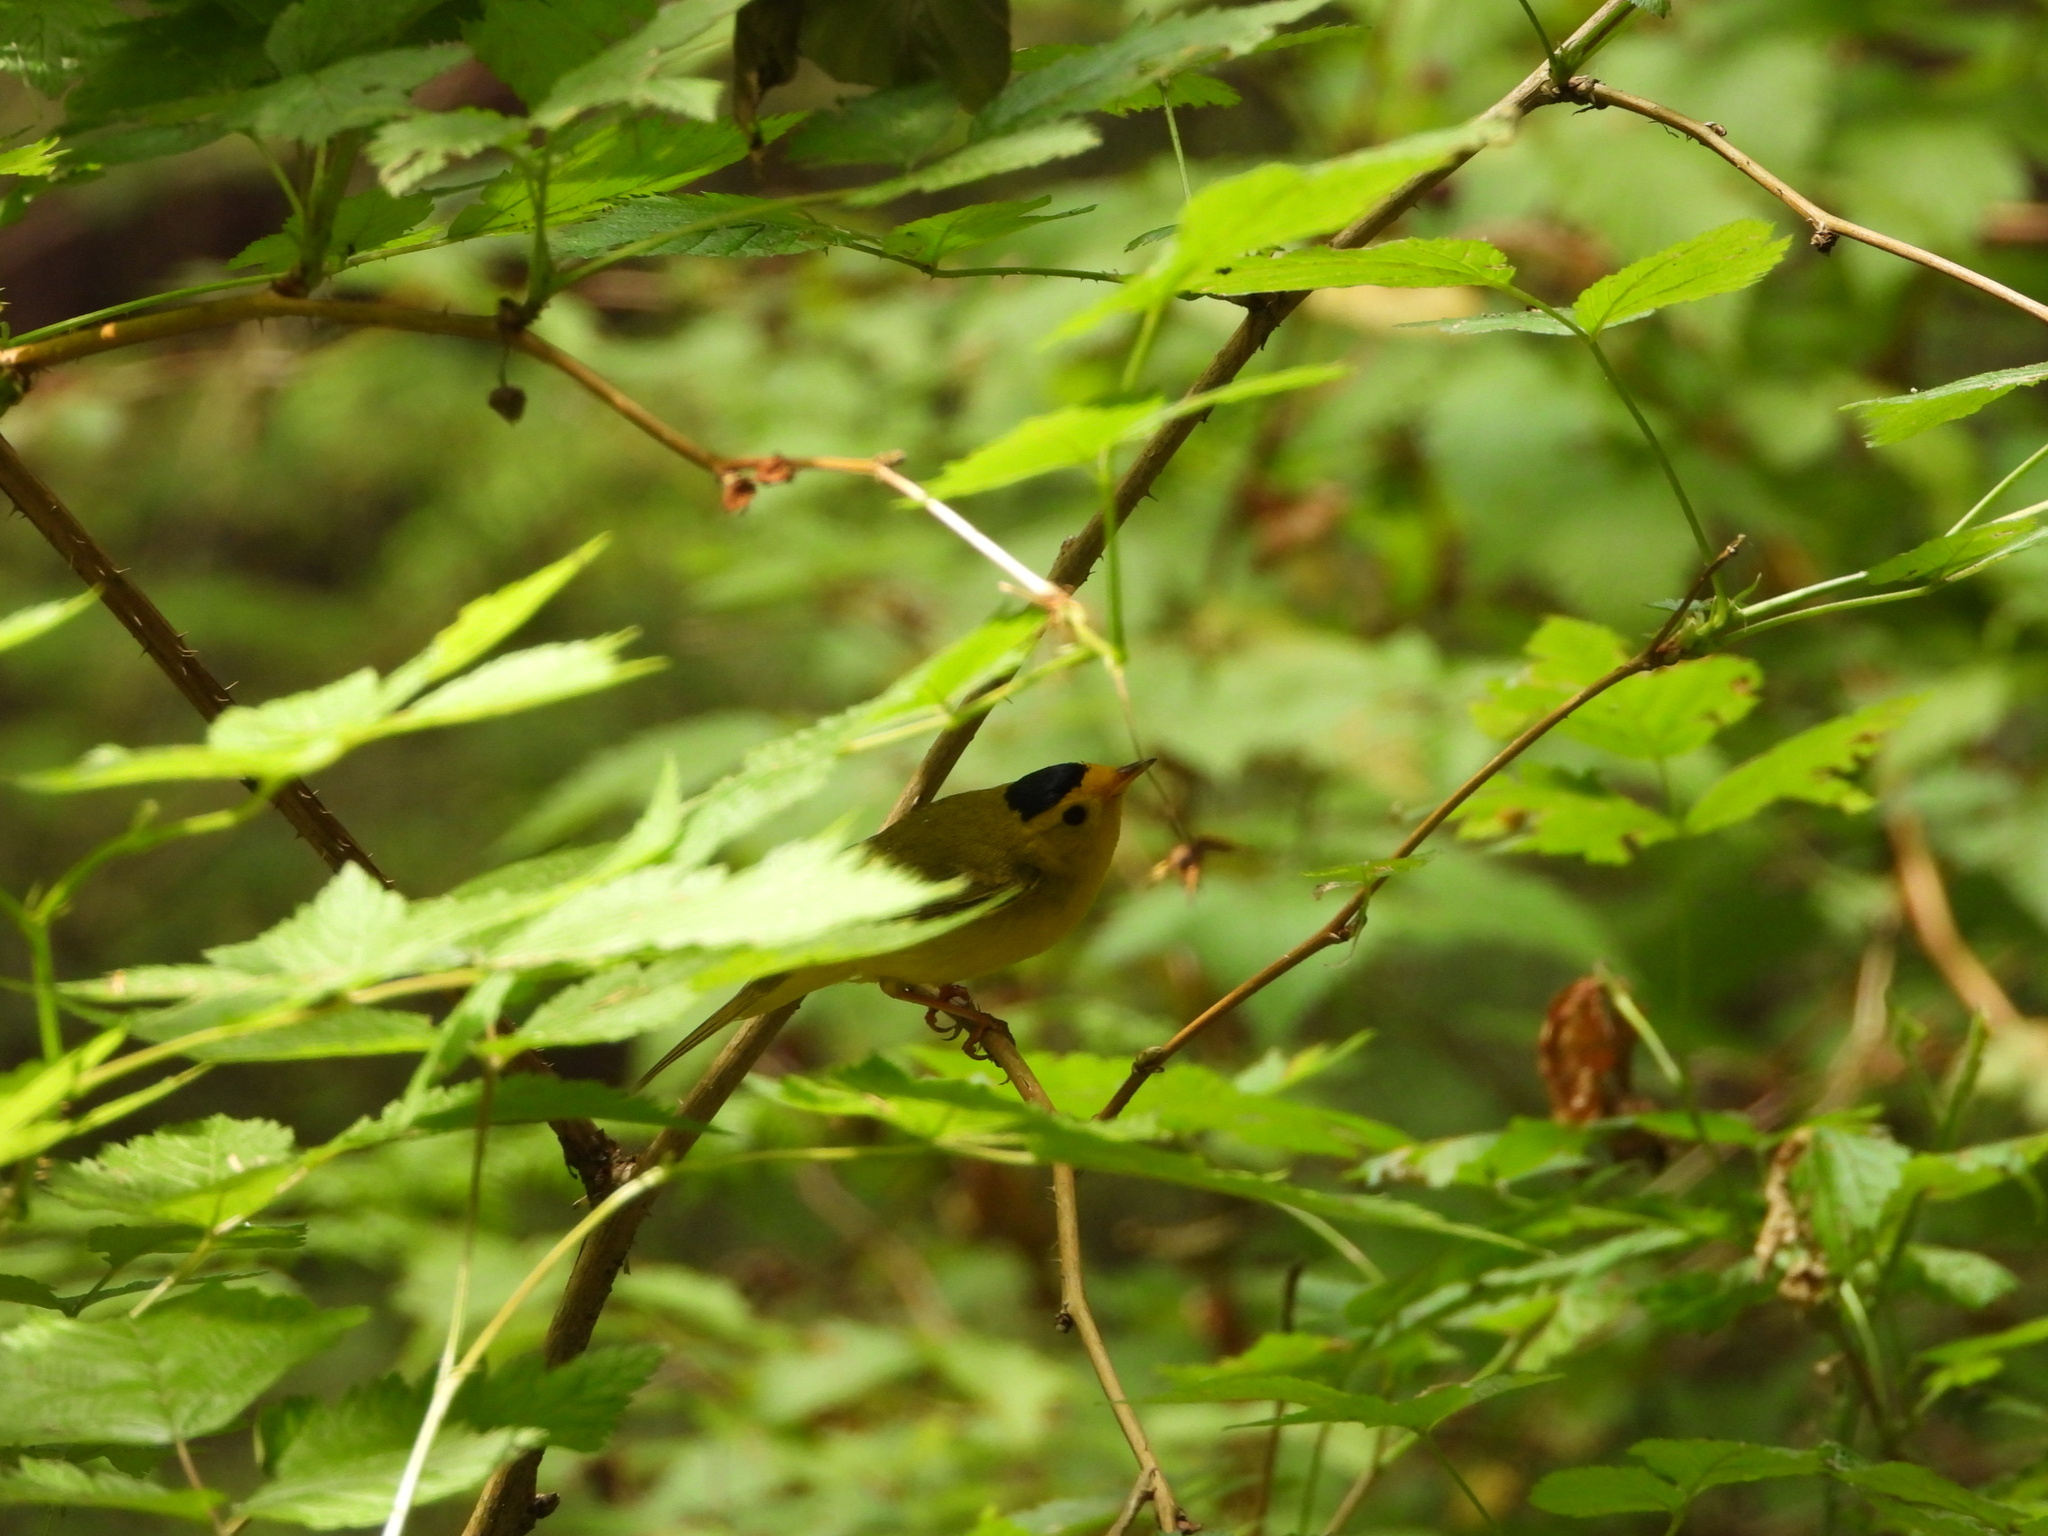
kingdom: Animalia
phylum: Chordata
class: Aves
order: Passeriformes
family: Parulidae
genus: Cardellina
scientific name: Cardellina pusilla
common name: Wilson's warbler
